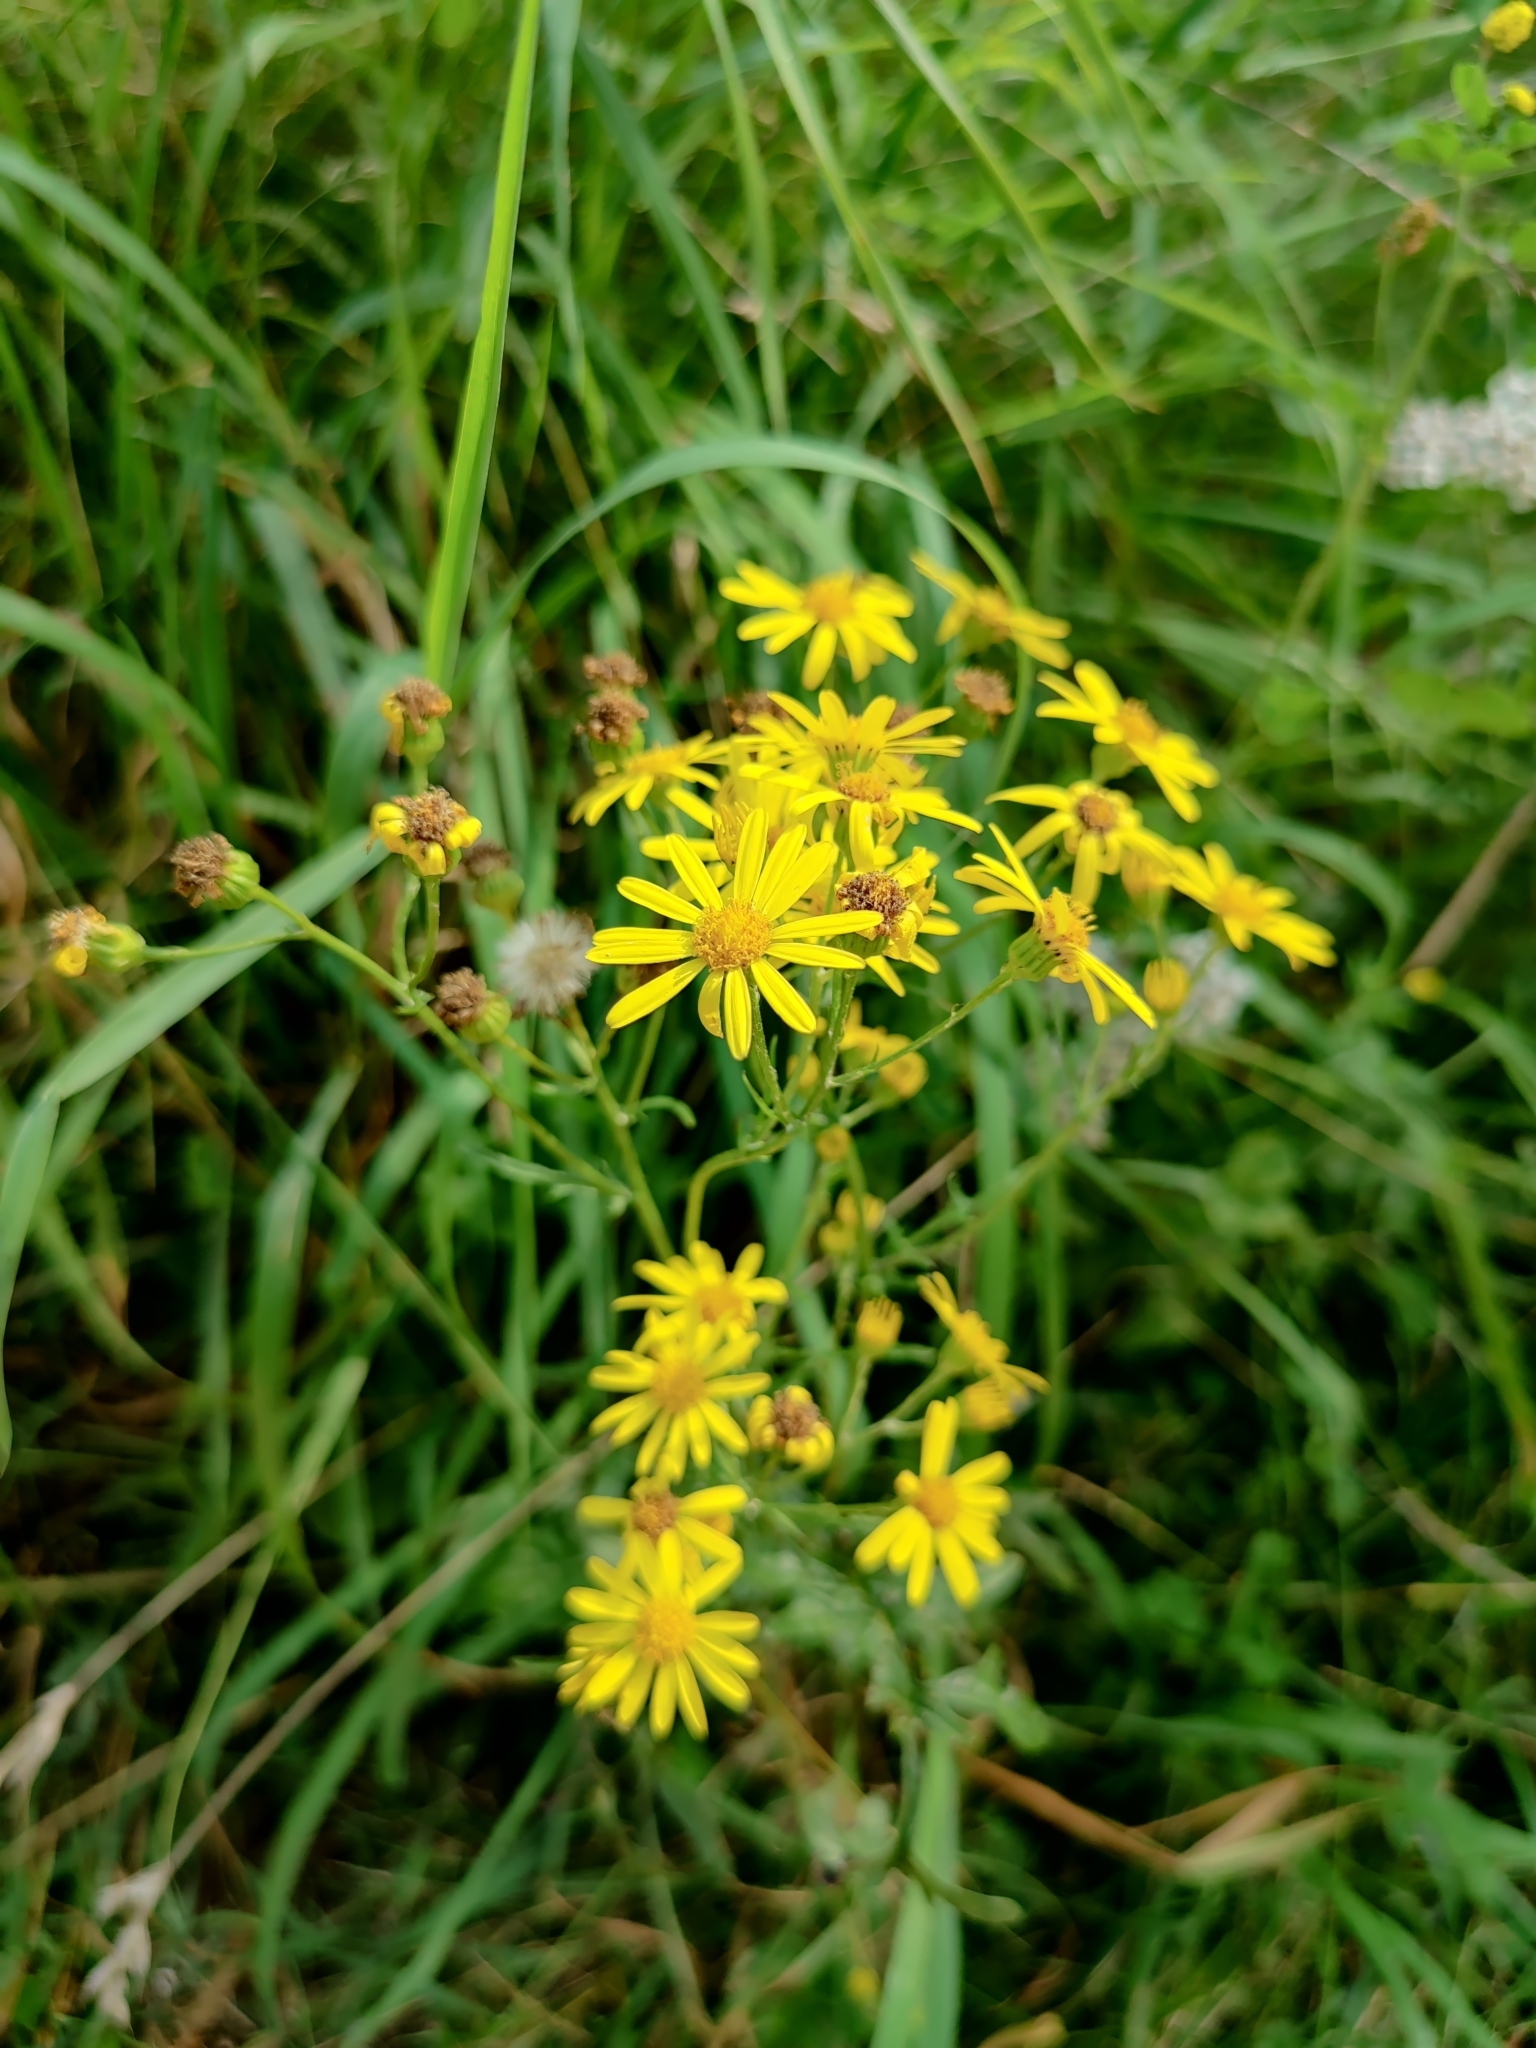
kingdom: Plantae
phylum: Tracheophyta
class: Magnoliopsida
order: Asterales
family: Asteraceae
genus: Jacobaea
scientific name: Jacobaea vulgaris
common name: Stinking willie
